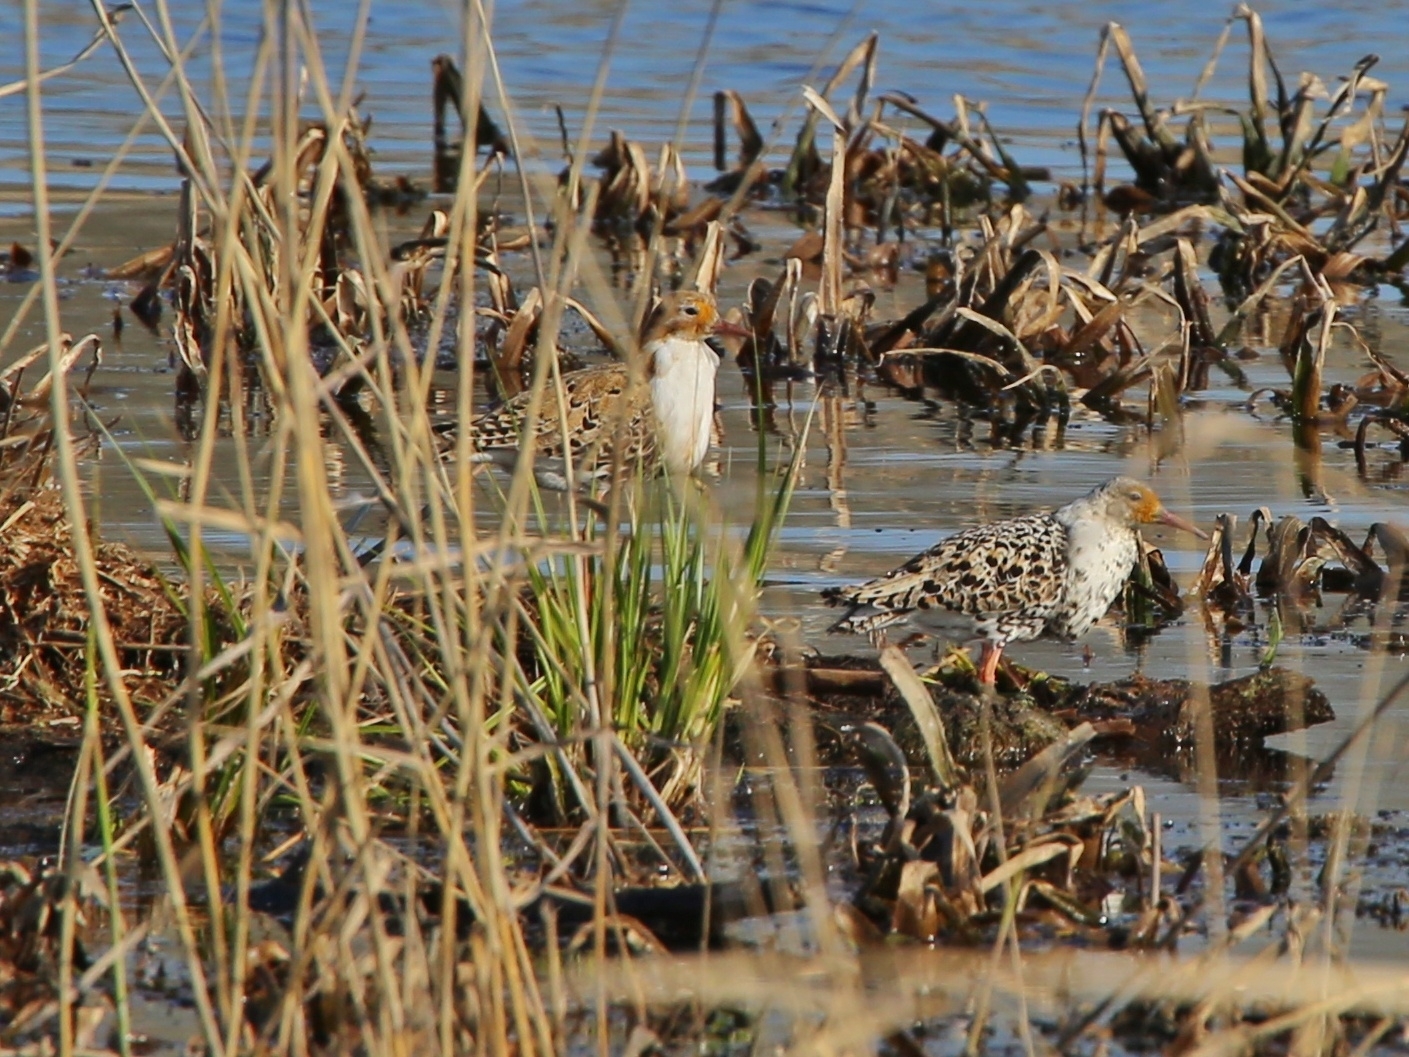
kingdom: Animalia
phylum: Chordata
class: Aves
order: Charadriiformes
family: Scolopacidae
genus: Calidris
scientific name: Calidris pugnax
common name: Ruff
